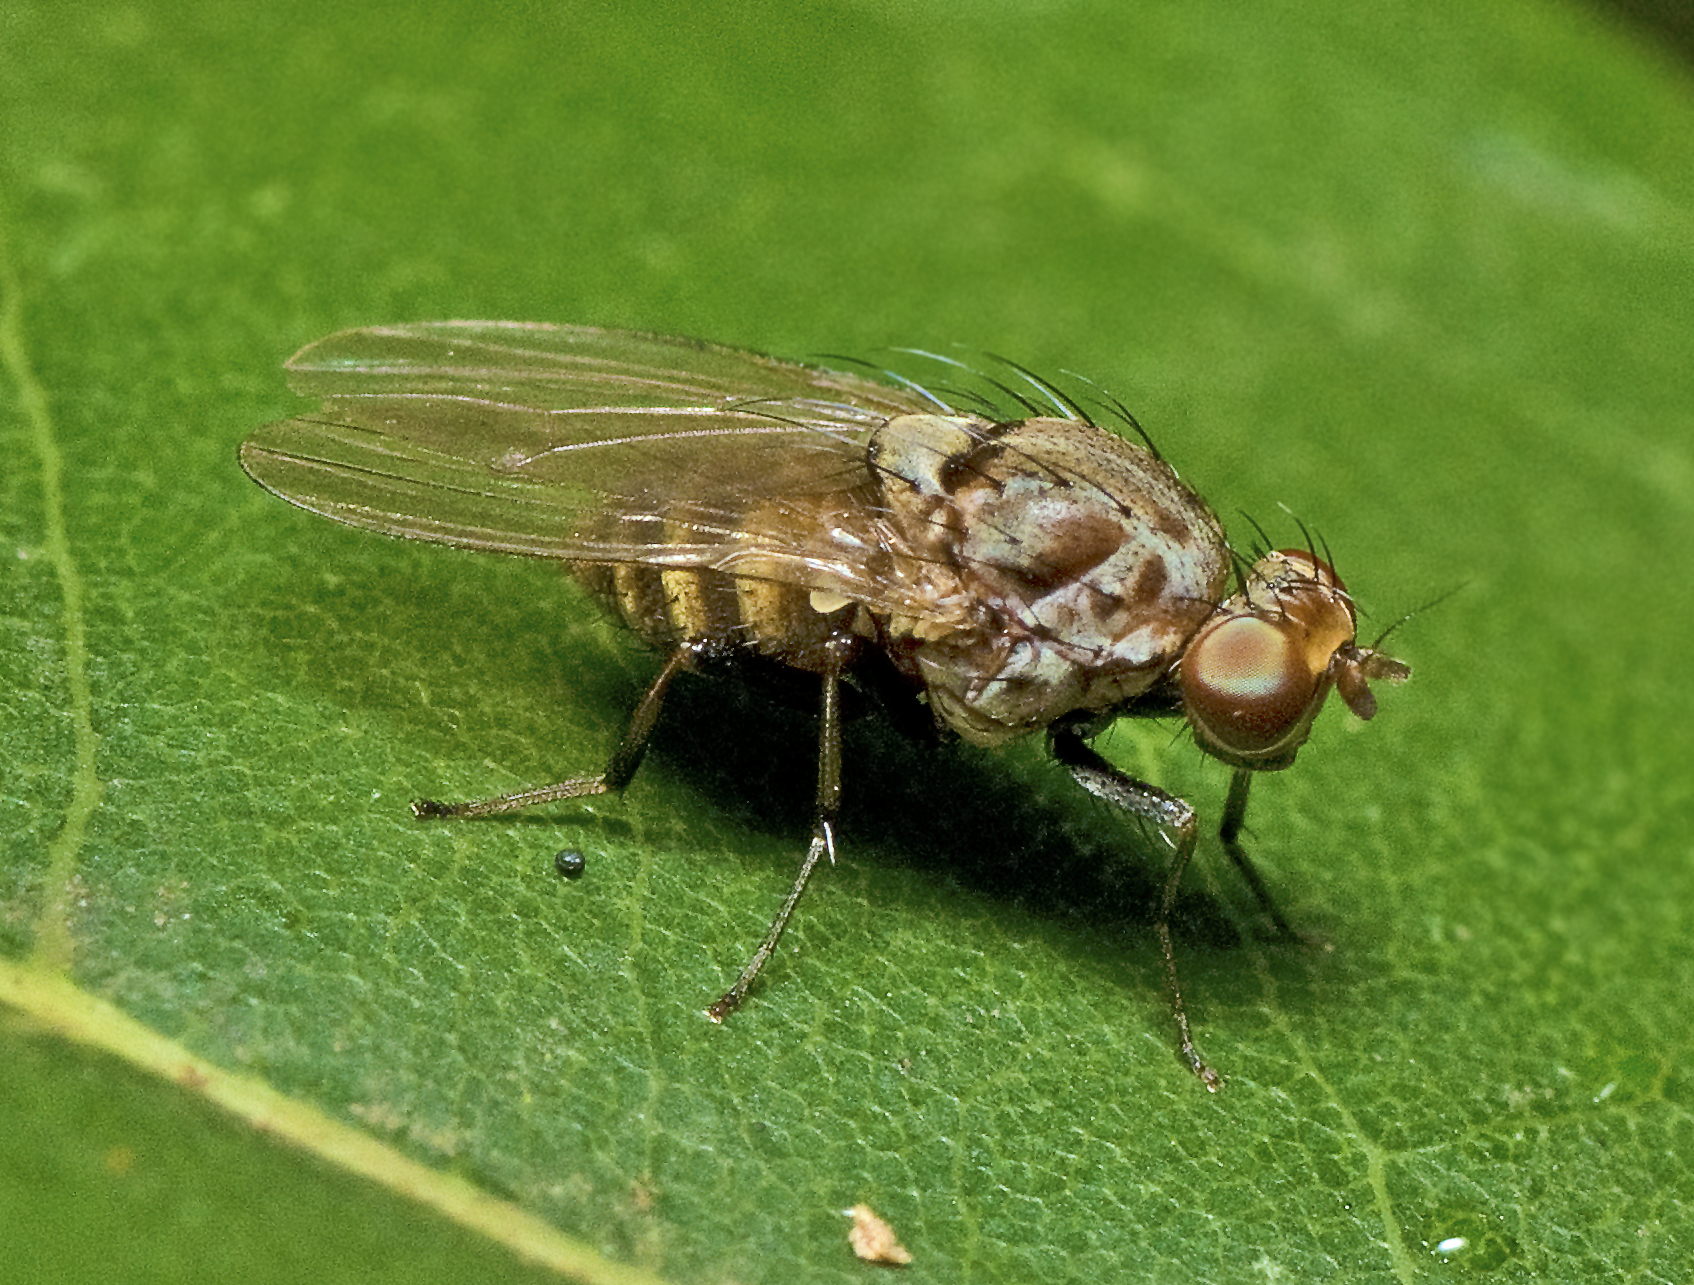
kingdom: Animalia
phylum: Arthropoda
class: Insecta
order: Diptera
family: Lauxaniidae
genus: Minettia
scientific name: Minettia maculithorax
